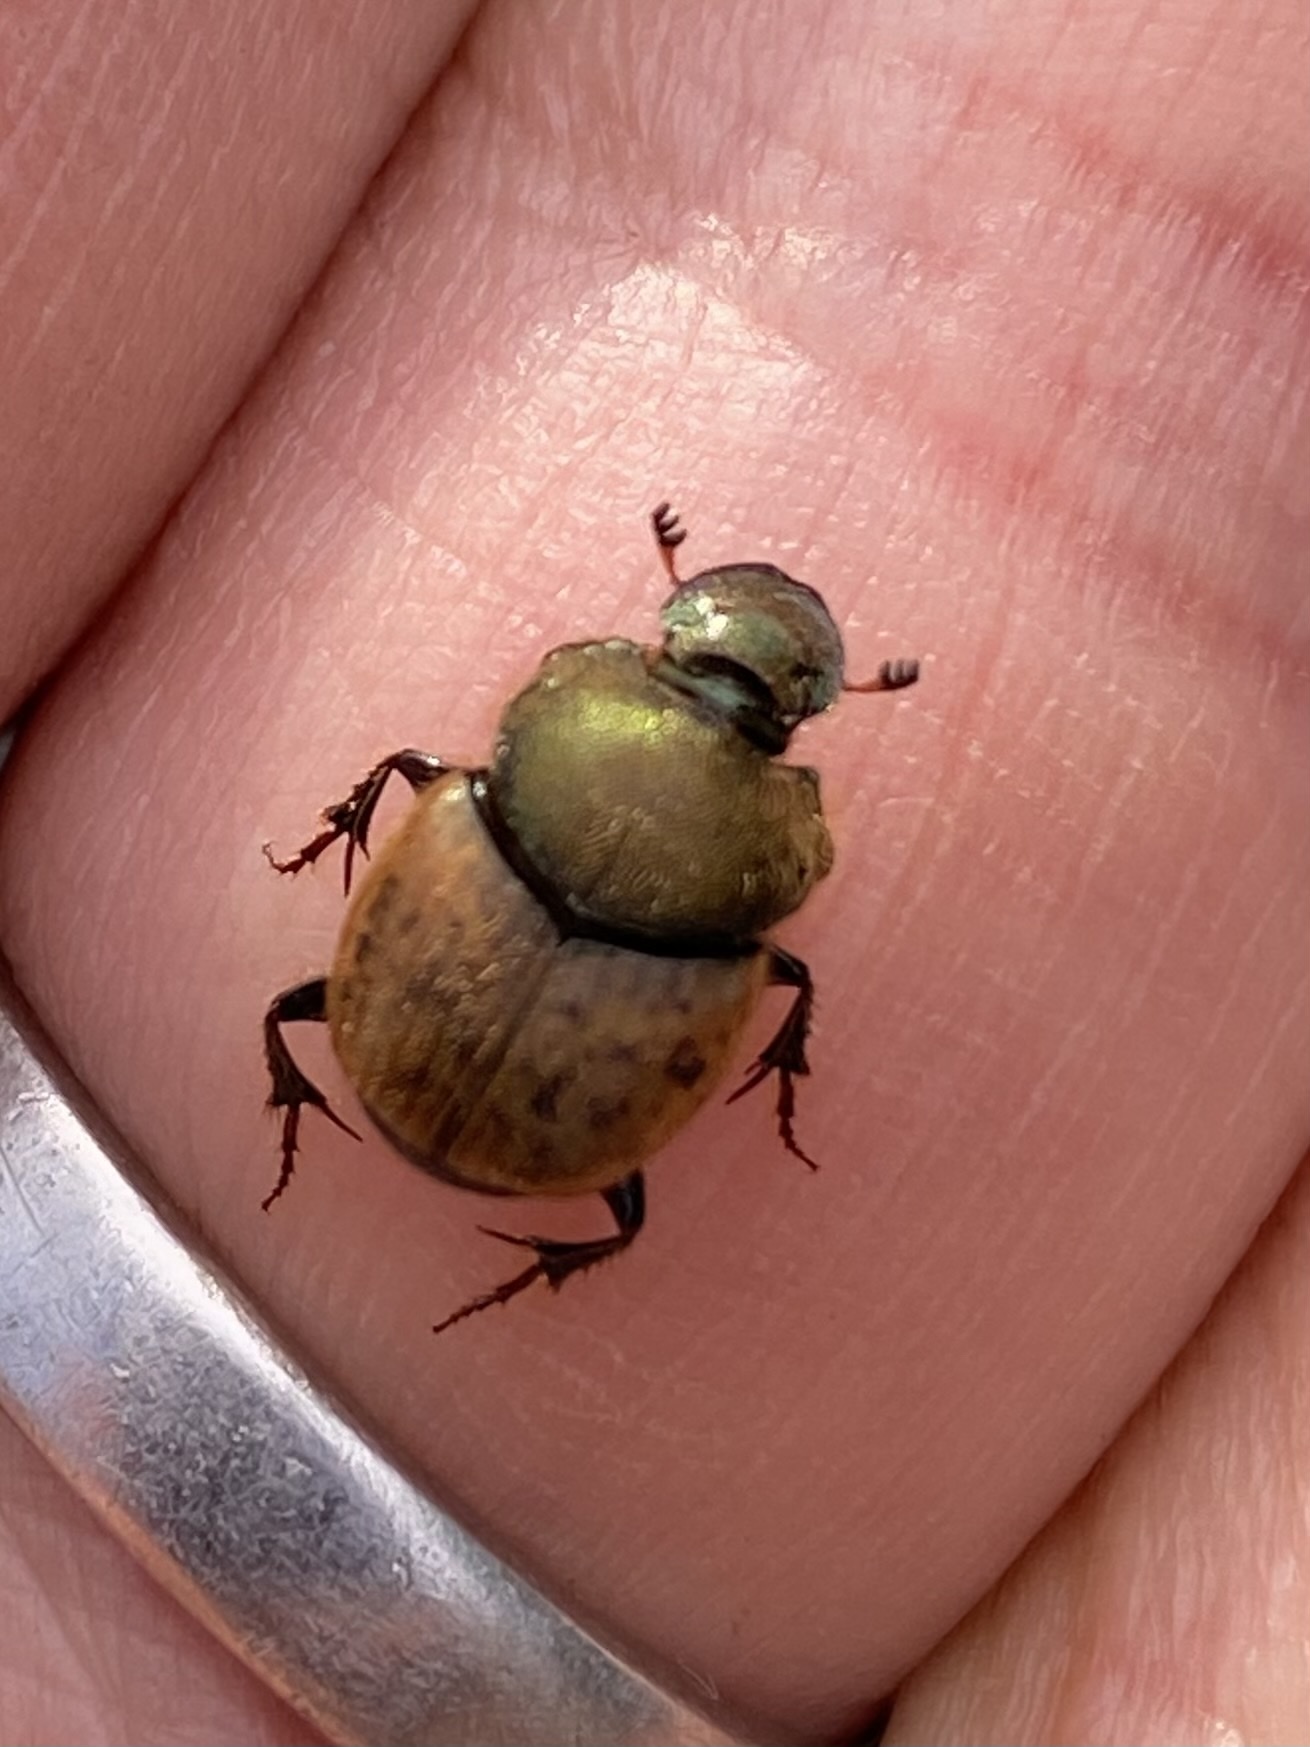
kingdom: Animalia
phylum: Arthropoda
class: Insecta
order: Coleoptera
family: Scarabaeidae
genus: Onthophagus
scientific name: Onthophagus coenobita
